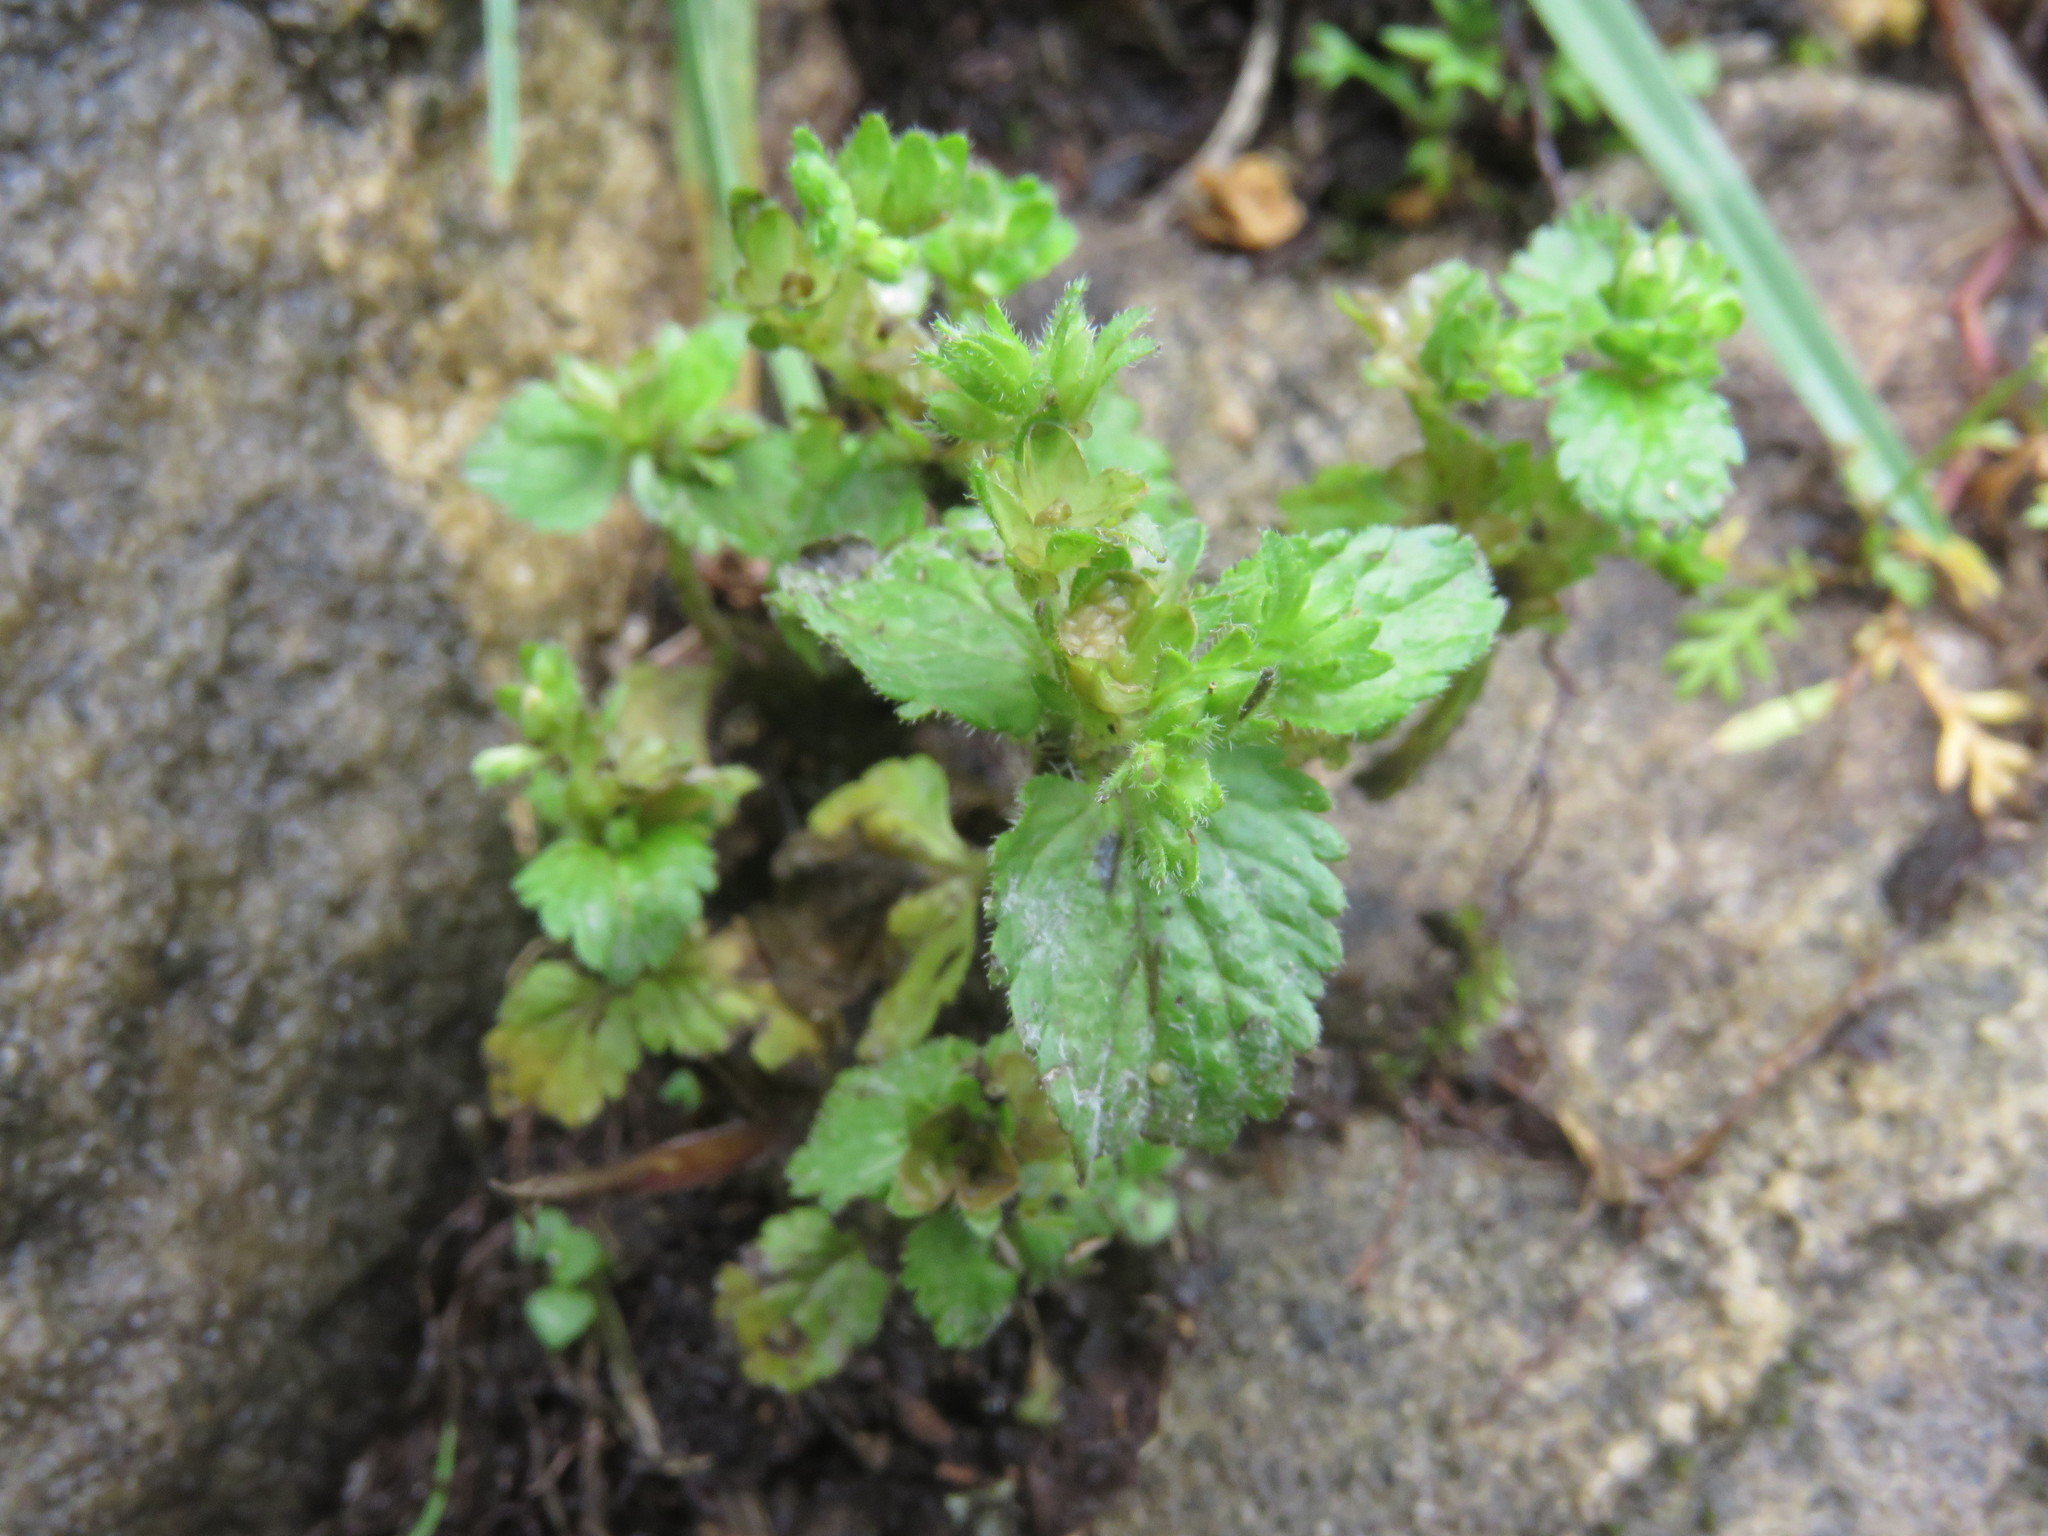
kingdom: Plantae
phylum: Tracheophyta
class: Magnoliopsida
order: Lamiales
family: Plantaginaceae
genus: Veronica
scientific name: Veronica javanica
